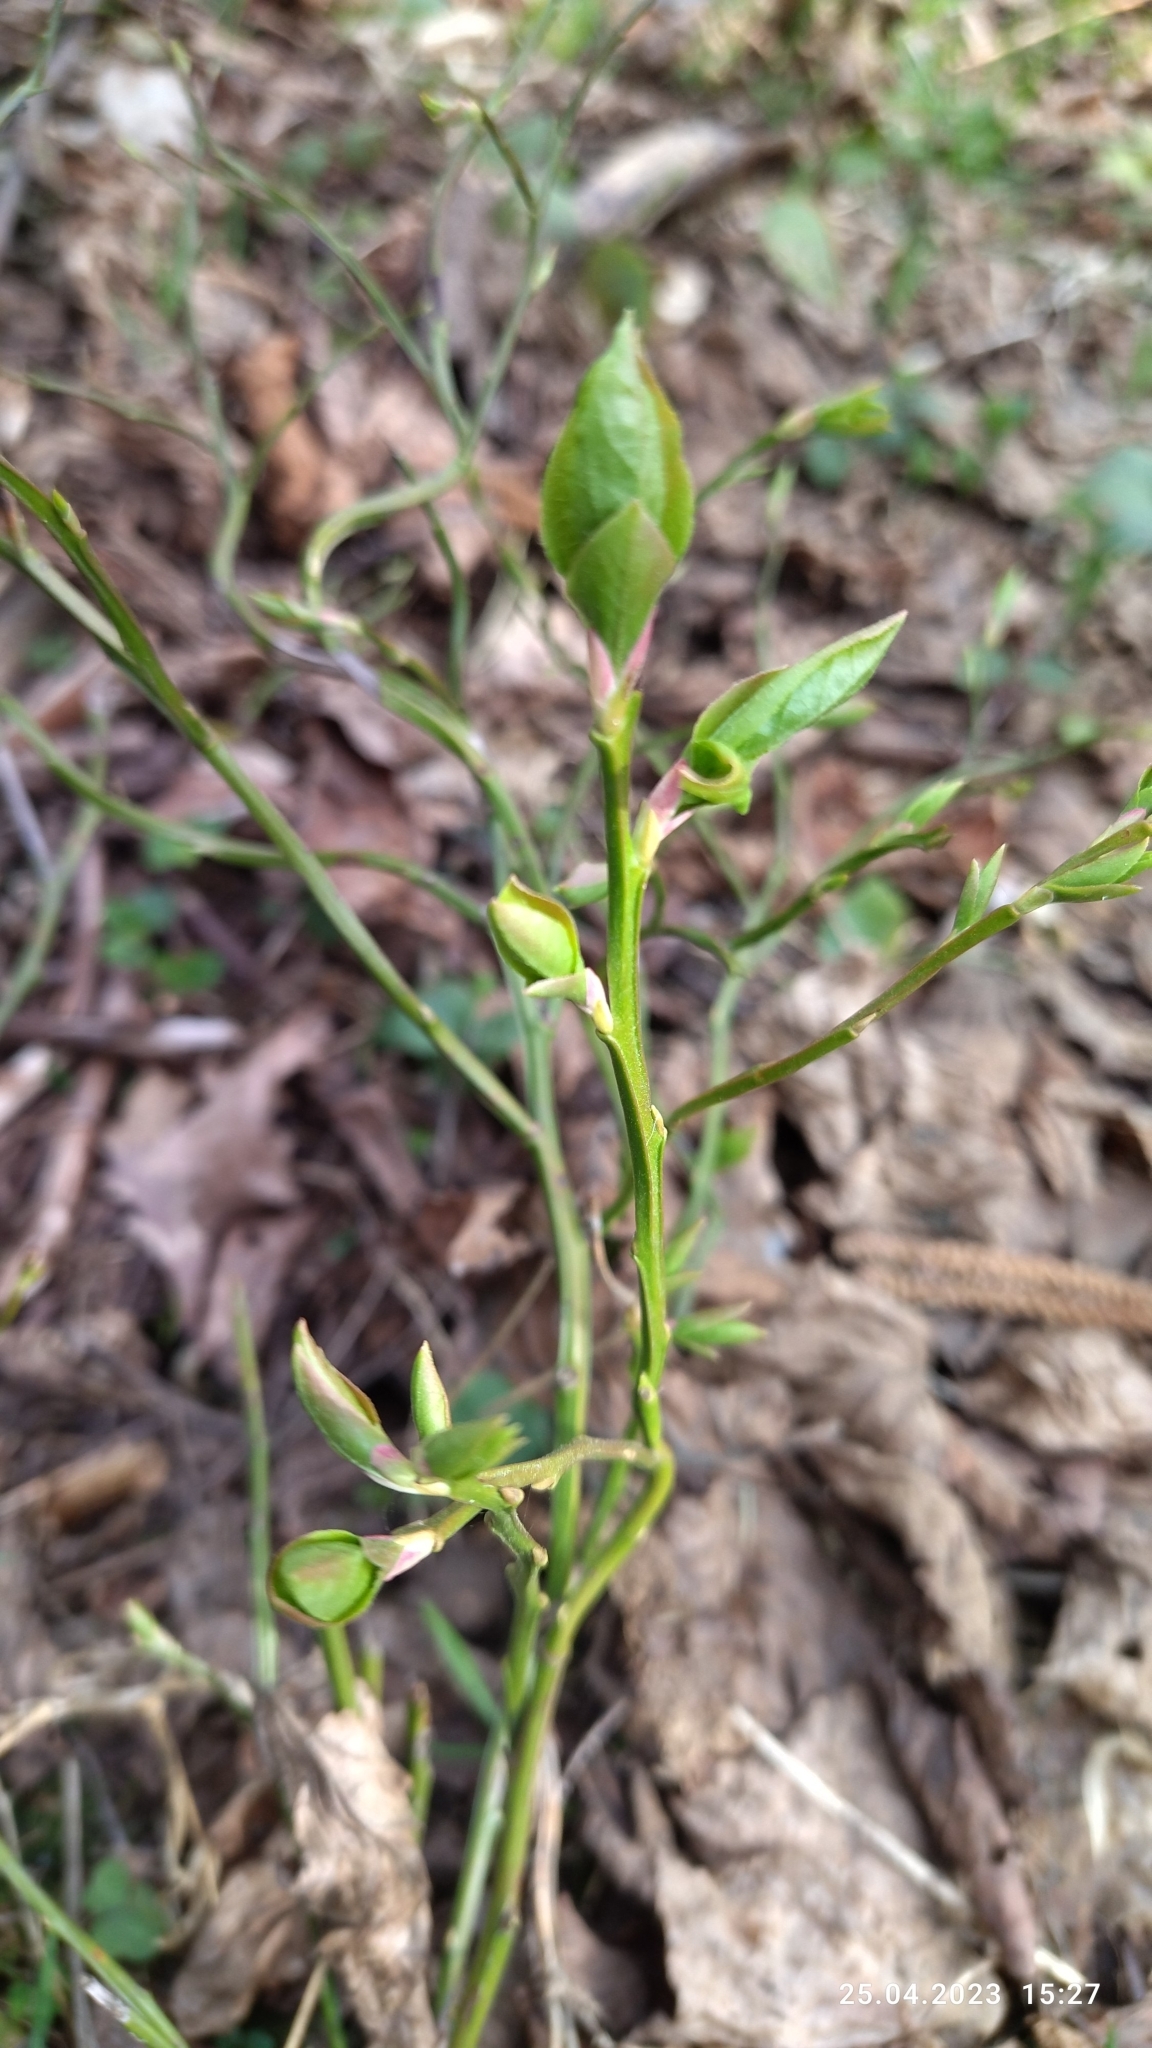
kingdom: Plantae
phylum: Tracheophyta
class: Magnoliopsida
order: Ericales
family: Ericaceae
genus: Vaccinium
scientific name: Vaccinium myrtillus
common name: Bilberry
